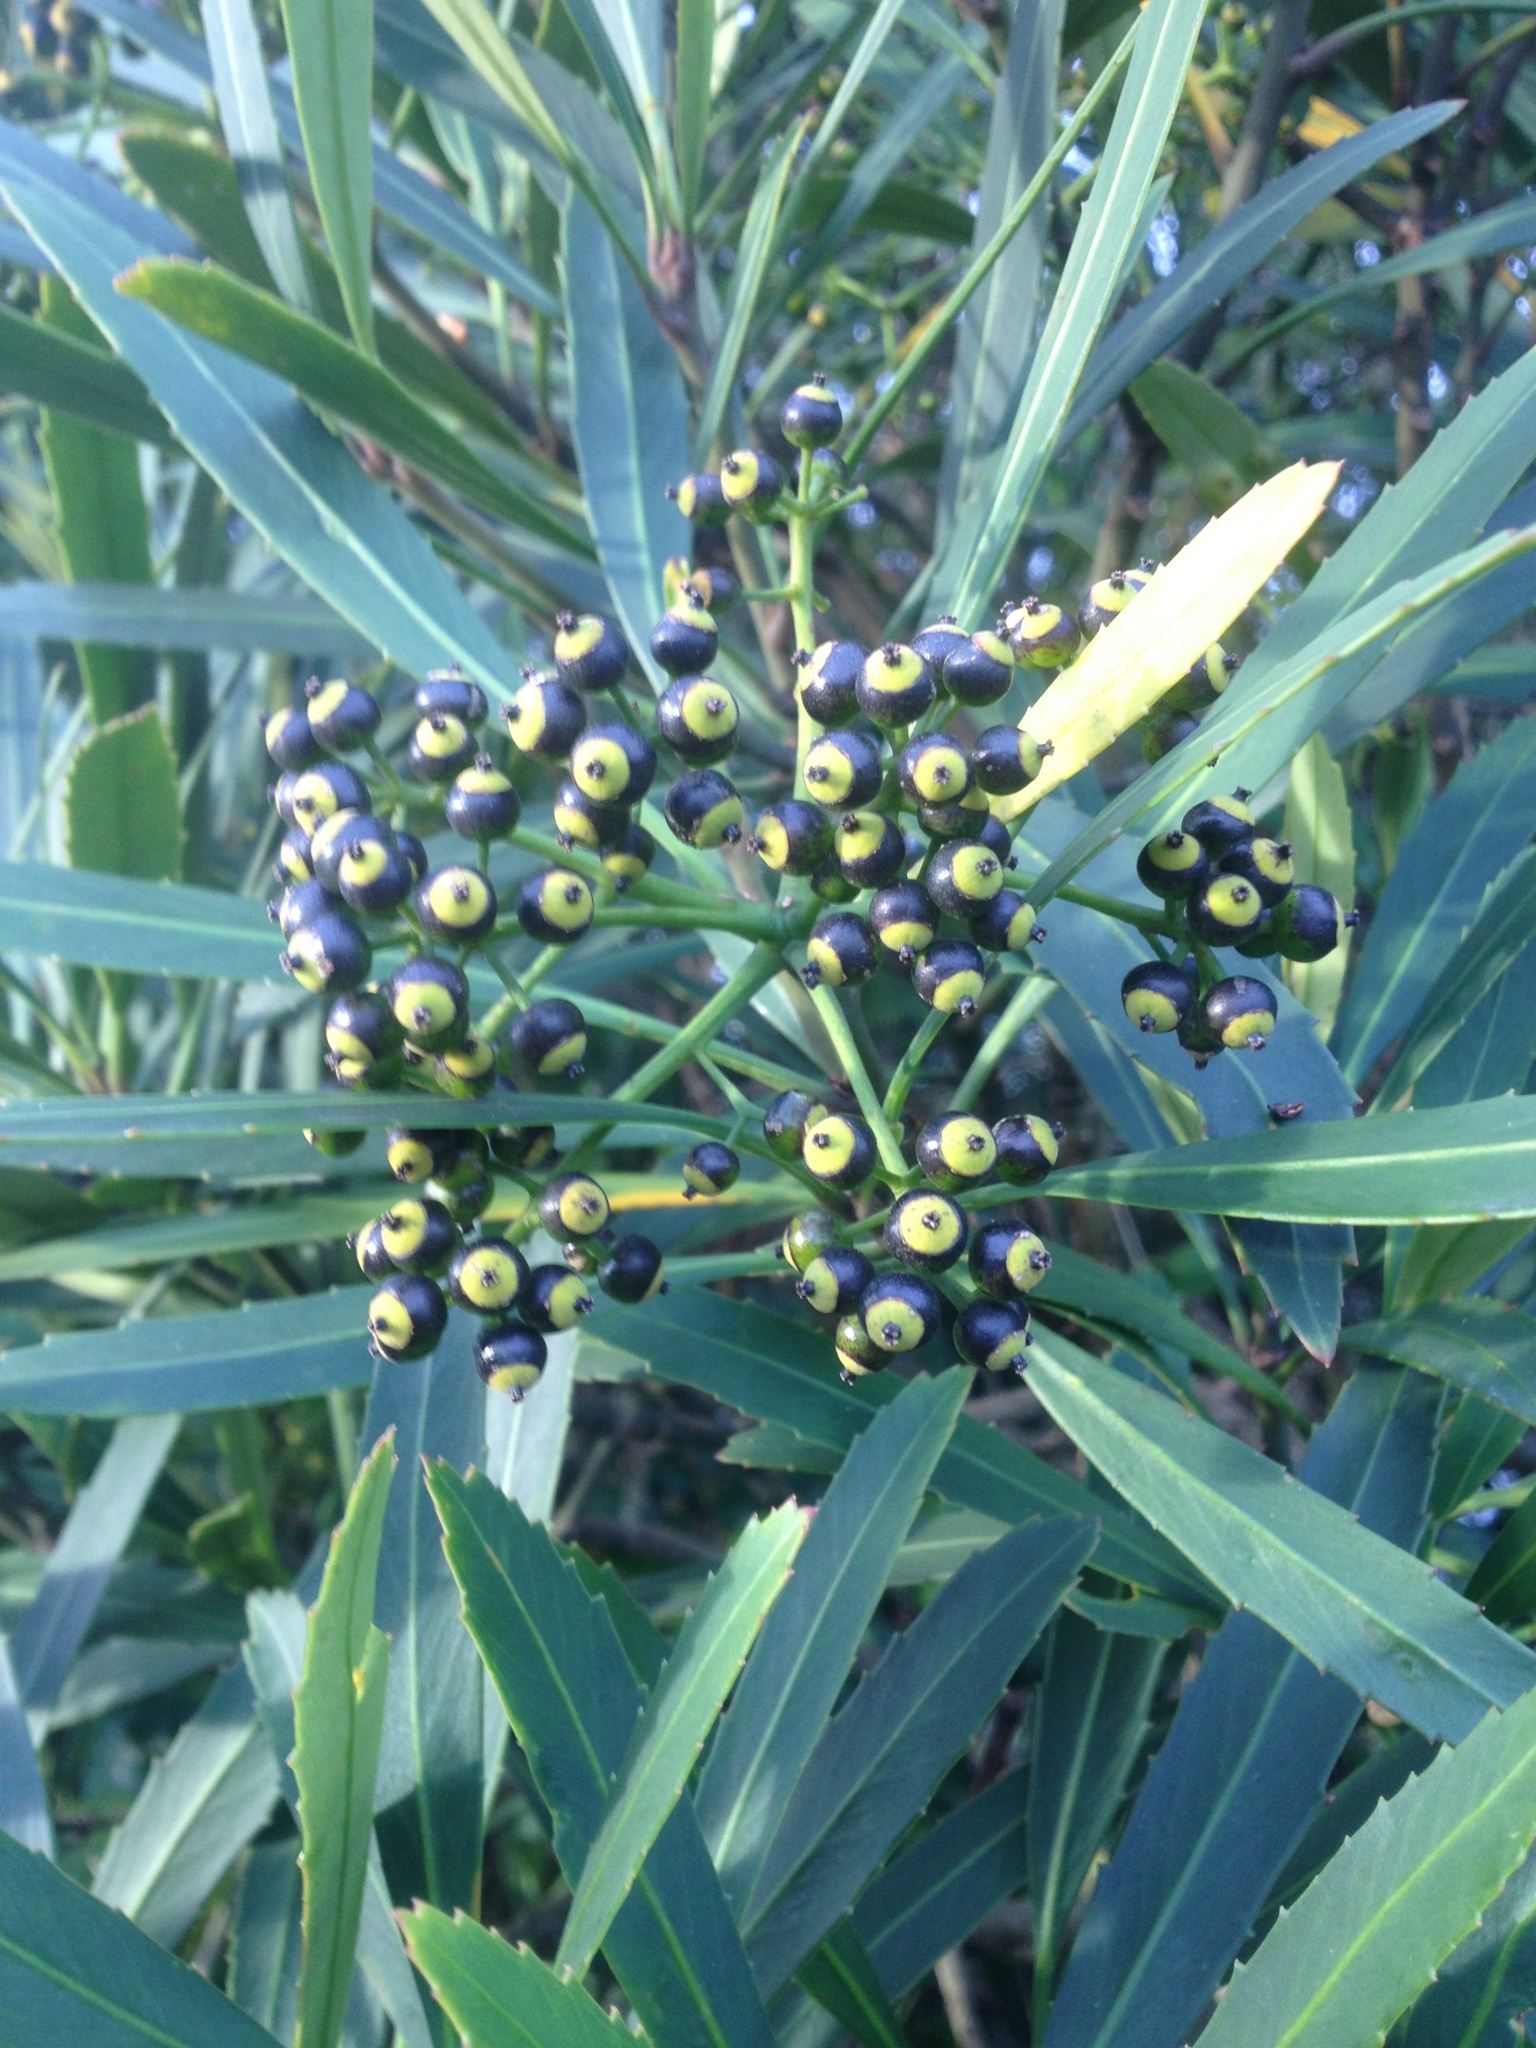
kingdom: Plantae
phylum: Tracheophyta
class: Magnoliopsida
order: Apiales
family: Araliaceae
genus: Pseudopanax
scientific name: Pseudopanax crassifolius
